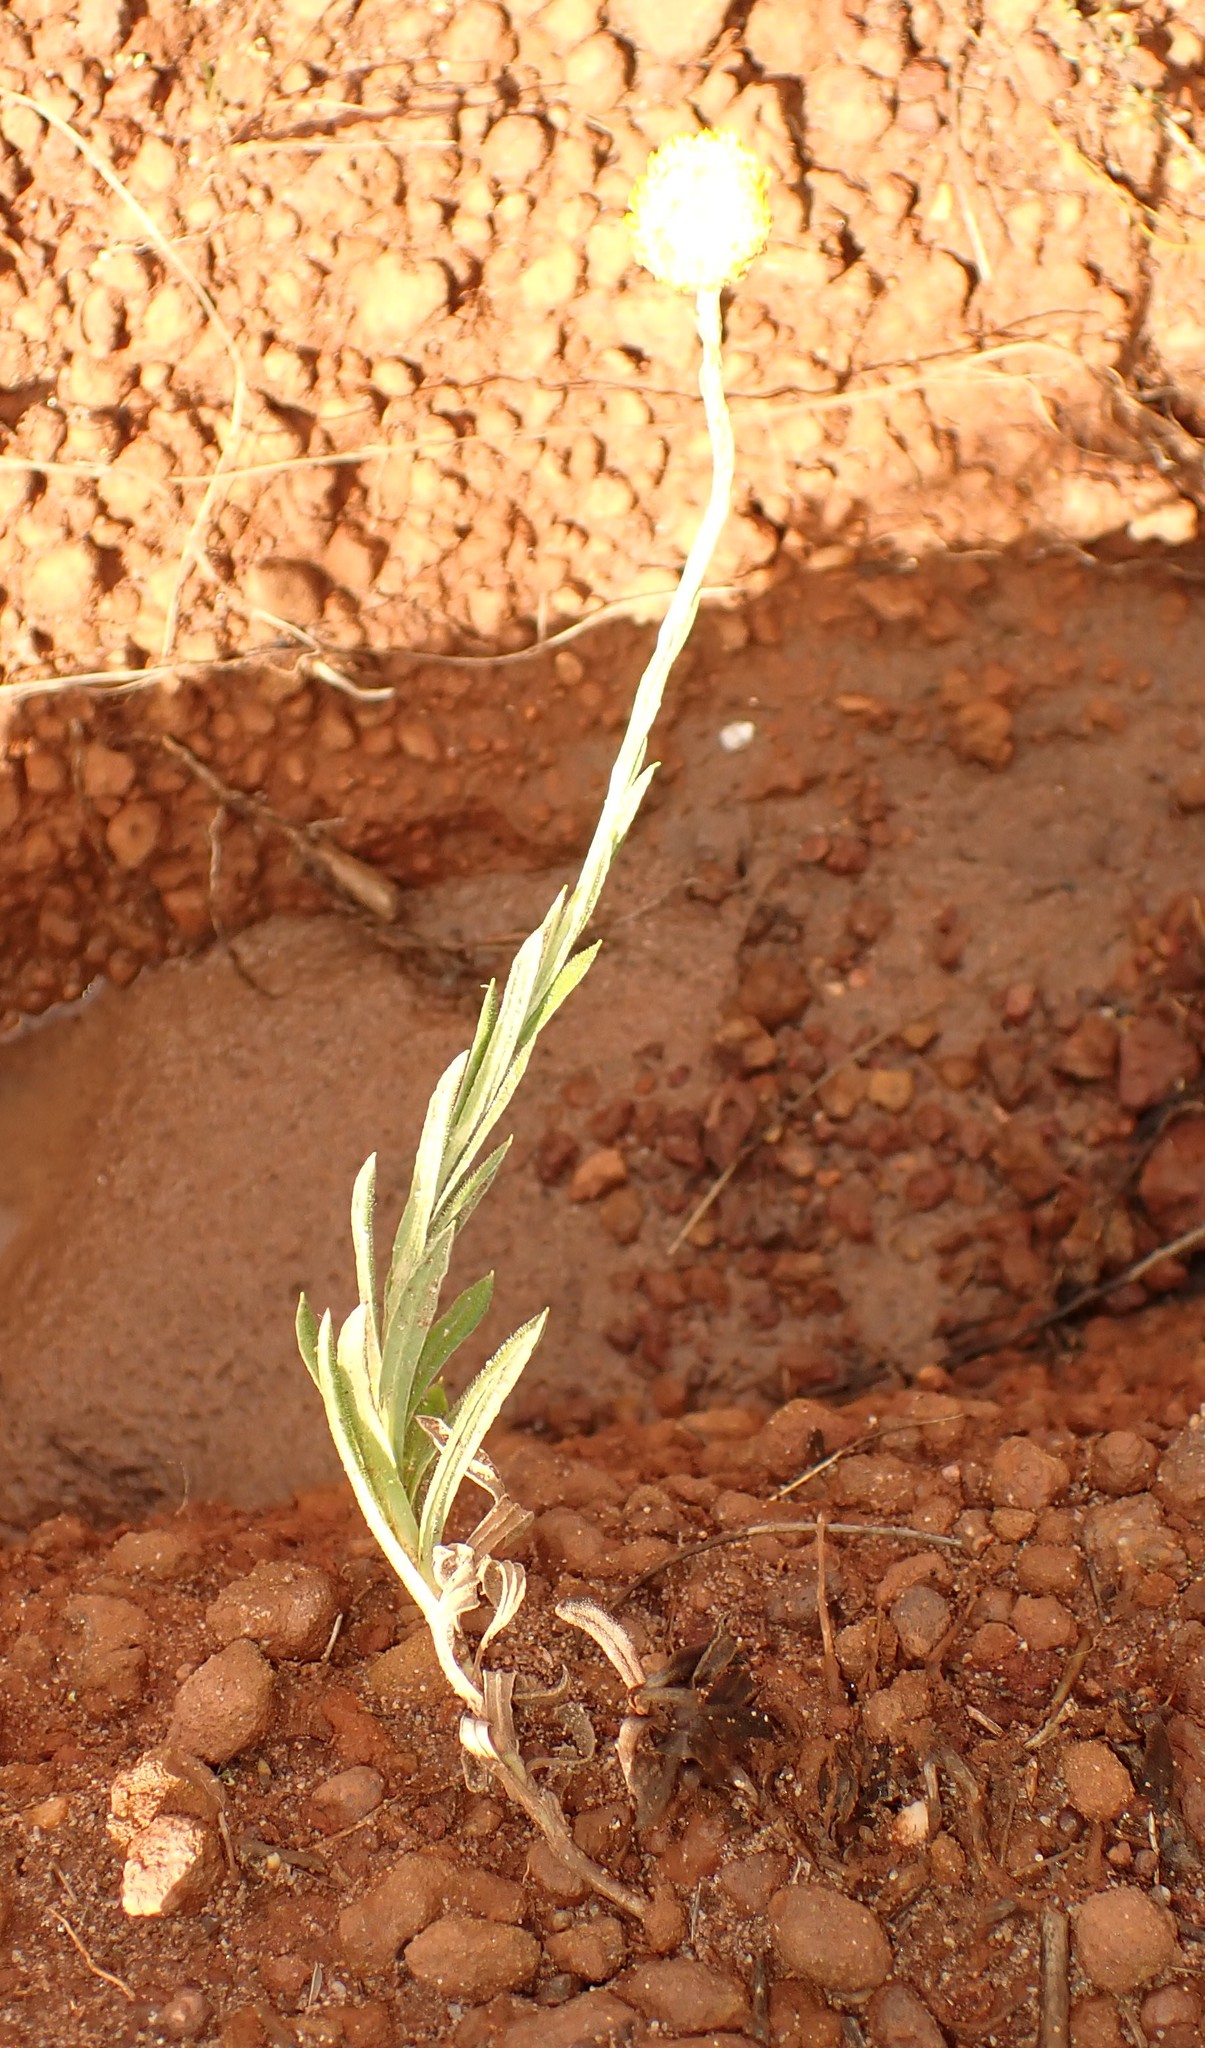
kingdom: Plantae
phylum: Tracheophyta
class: Magnoliopsida
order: Asterales
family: Asteraceae
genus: Coronidium
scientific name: Coronidium scorpioides
